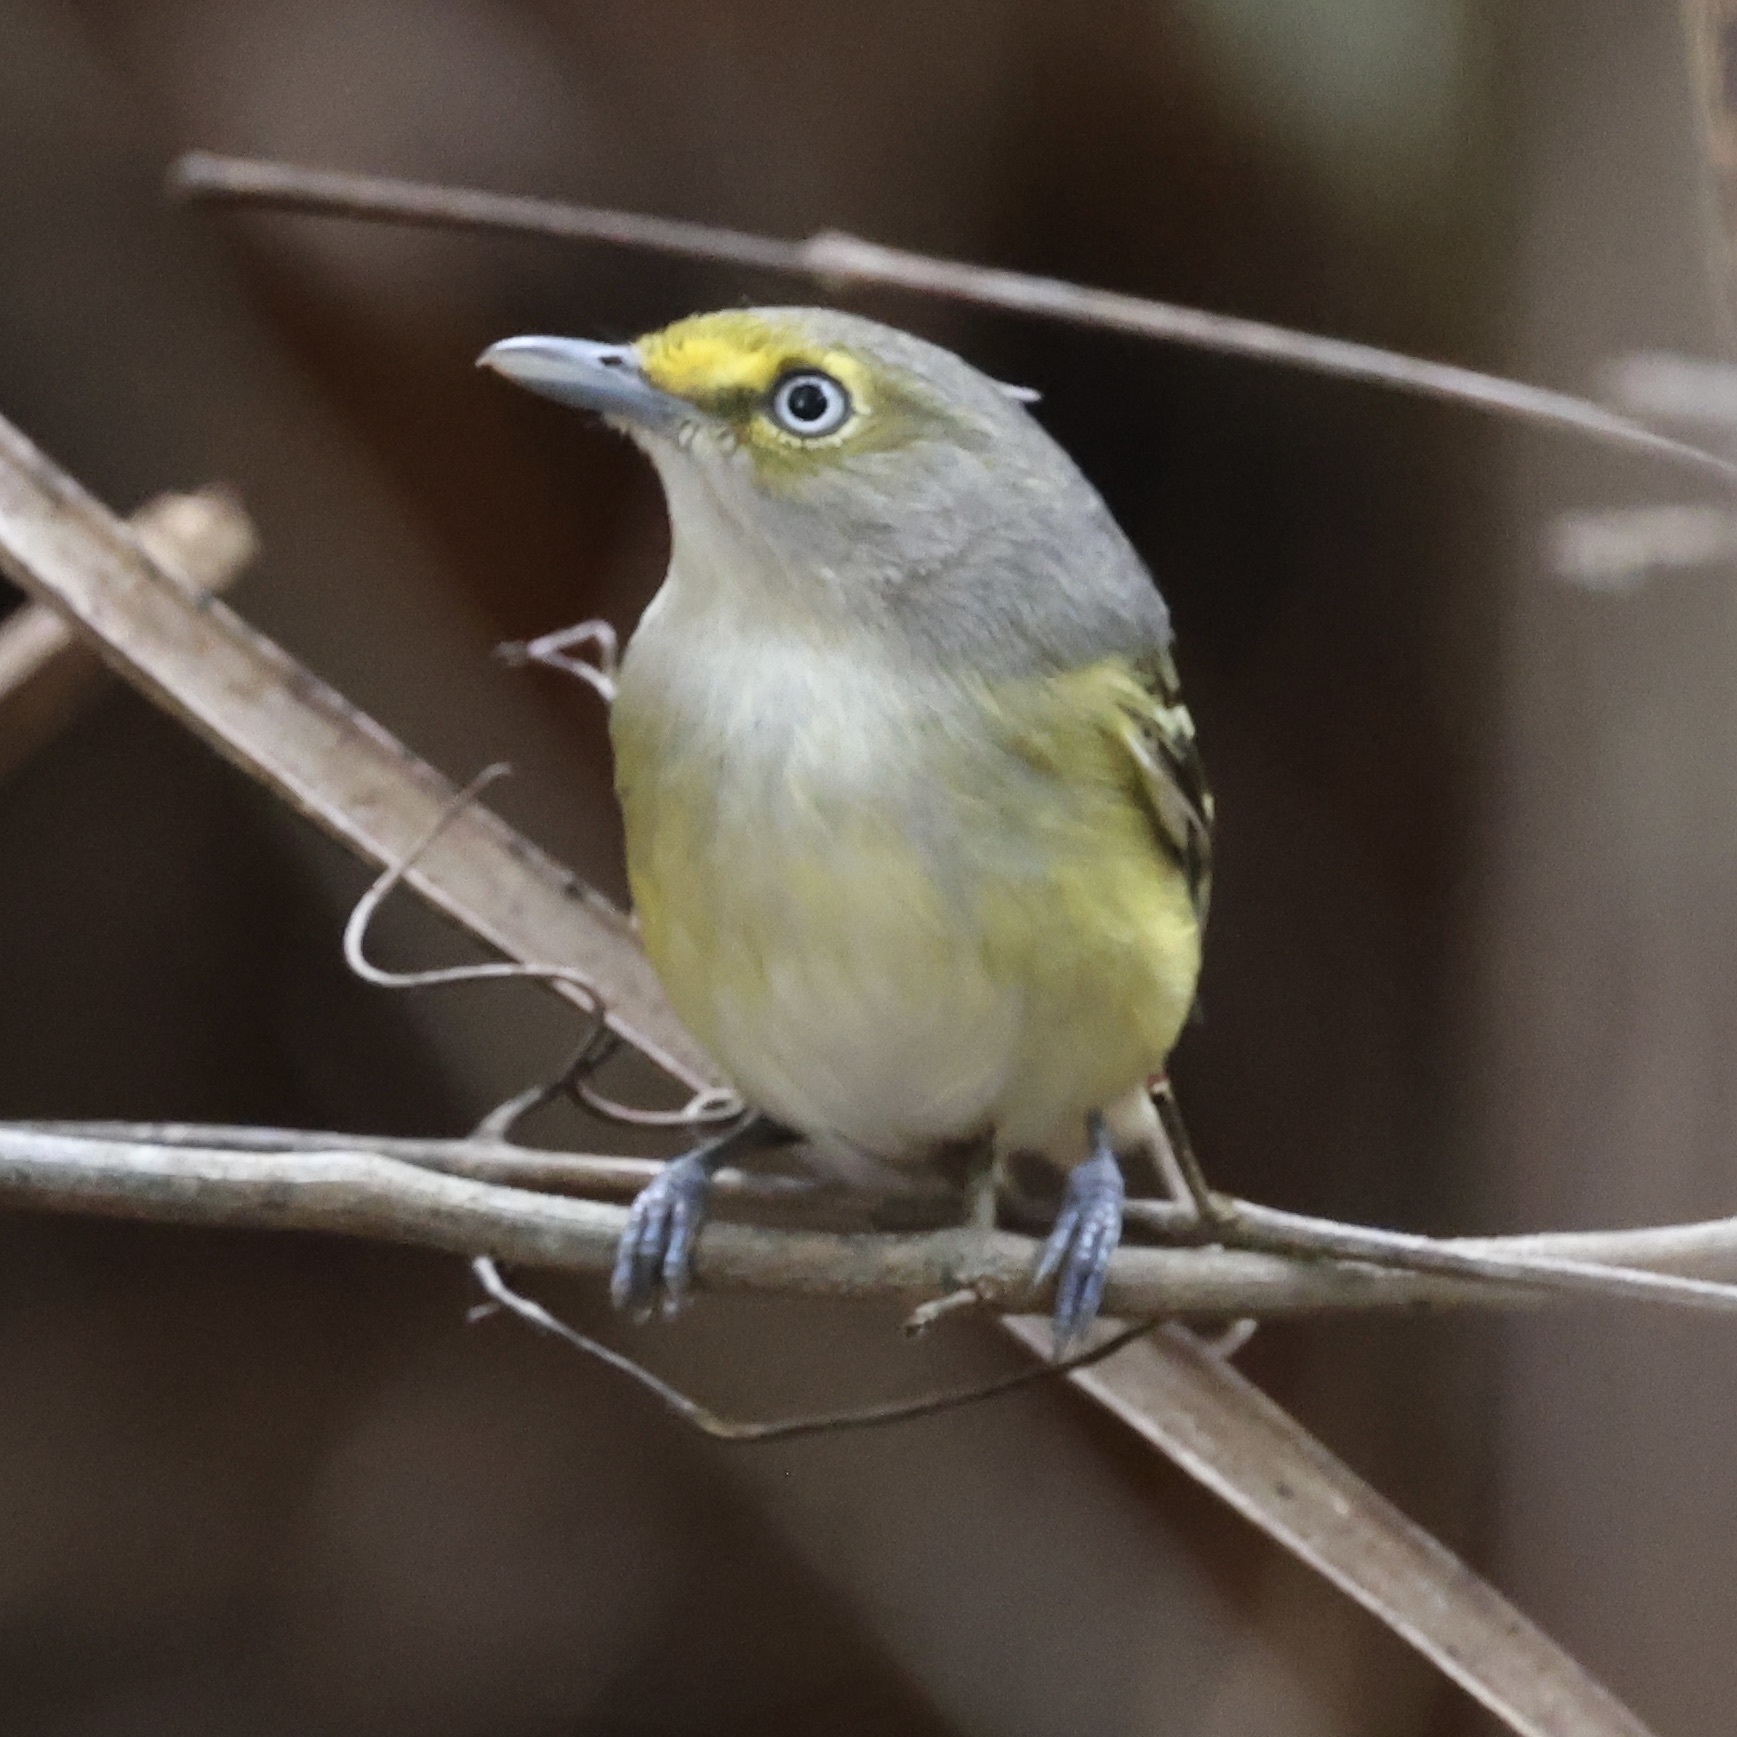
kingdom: Animalia
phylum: Chordata
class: Aves
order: Passeriformes
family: Vireonidae
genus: Vireo
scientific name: Vireo griseus
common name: White-eyed vireo
